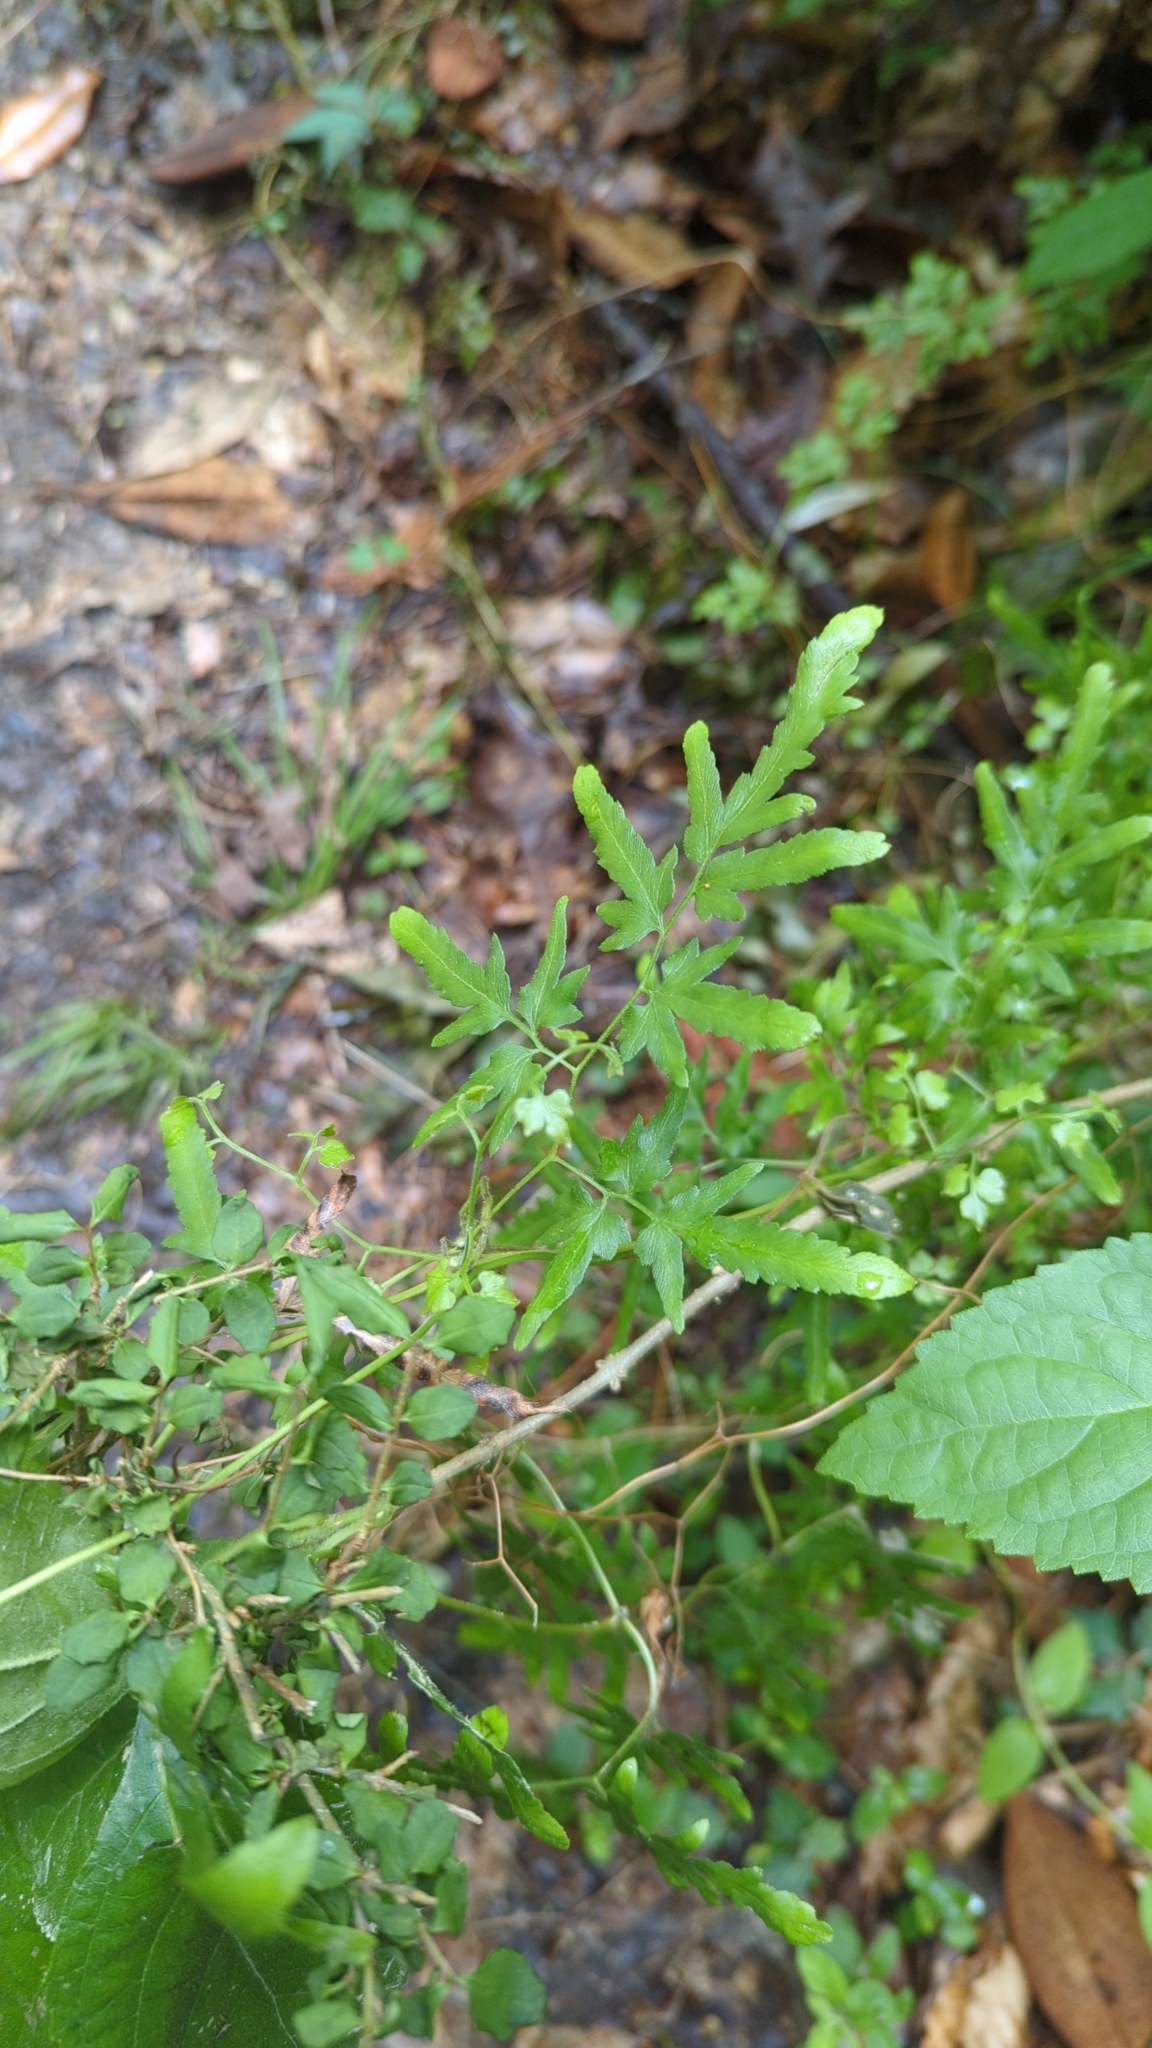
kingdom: Plantae
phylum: Tracheophyta
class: Polypodiopsida
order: Schizaeales
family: Lygodiaceae
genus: Lygodium
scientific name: Lygodium japonicum
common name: Japanese climbing fern
